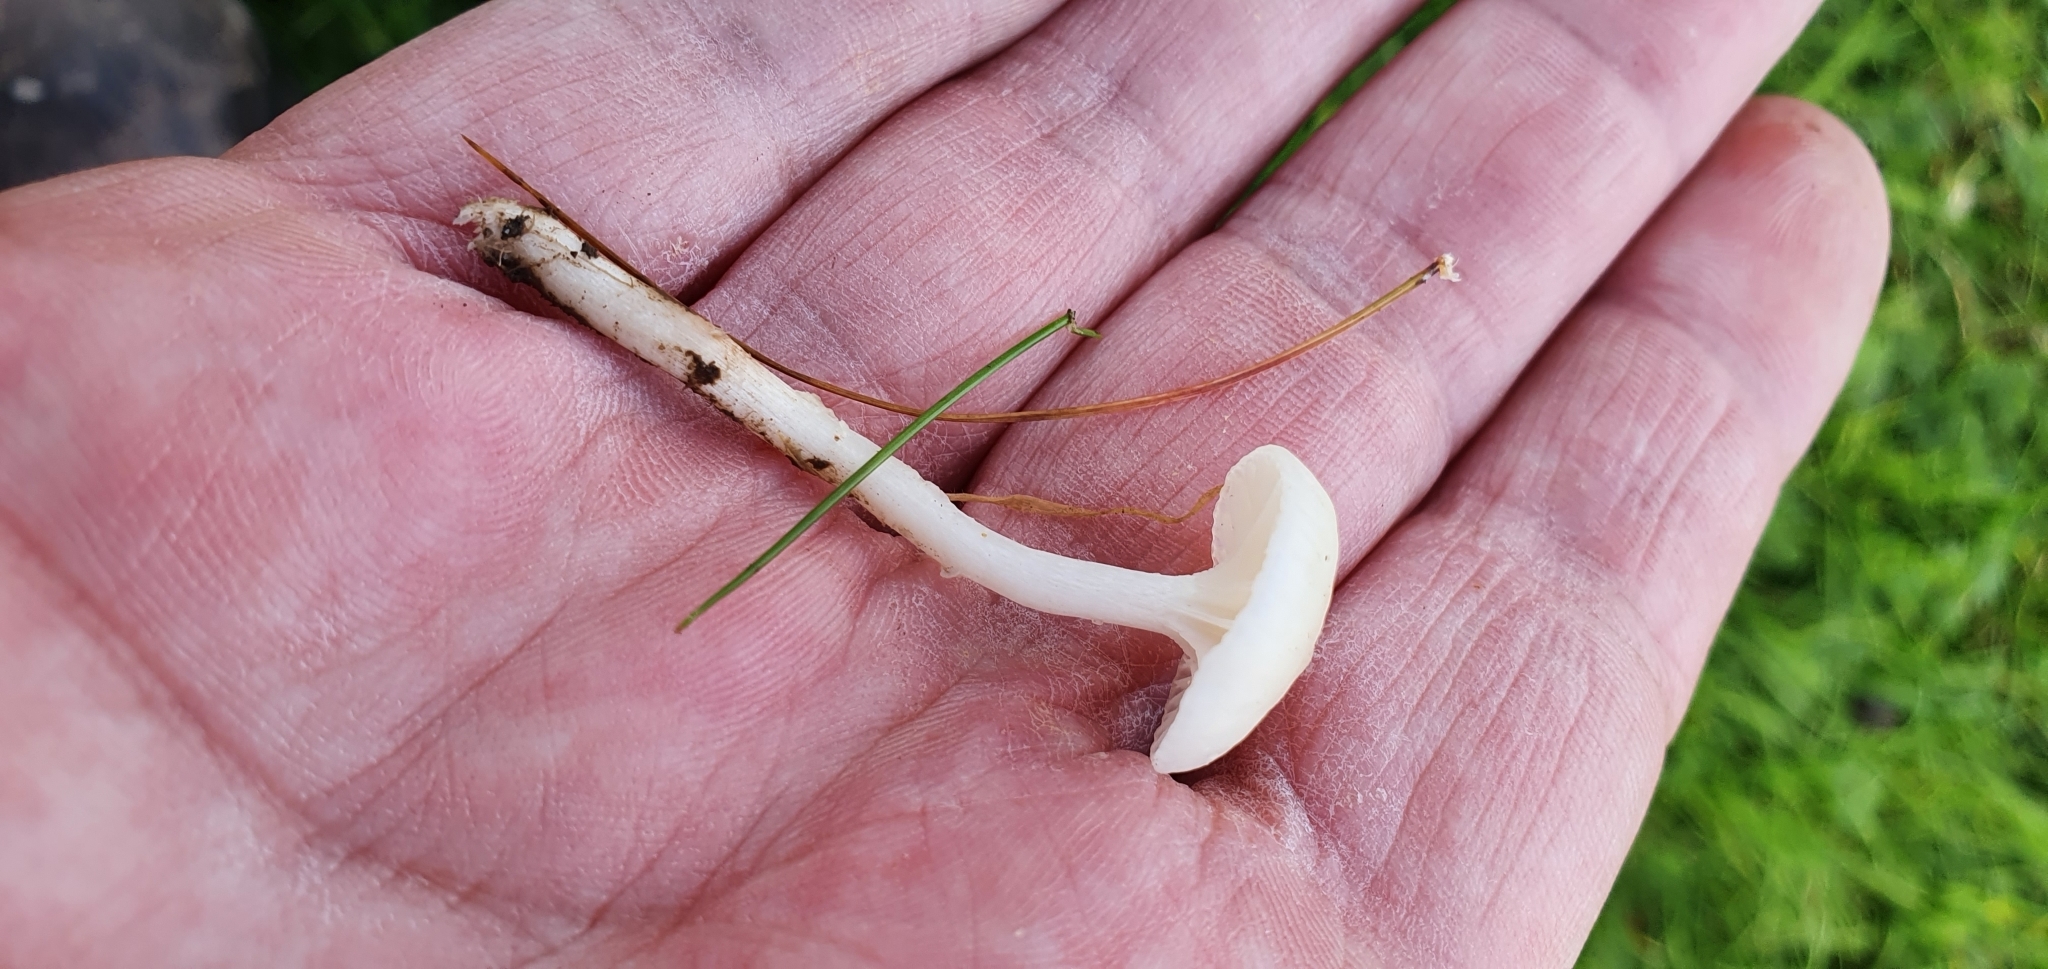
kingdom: Fungi
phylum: Basidiomycota
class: Agaricomycetes
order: Agaricales
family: Hygrophoraceae
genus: Cuphophyllus
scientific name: Cuphophyllus virgineus
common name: Snowy waxcap
